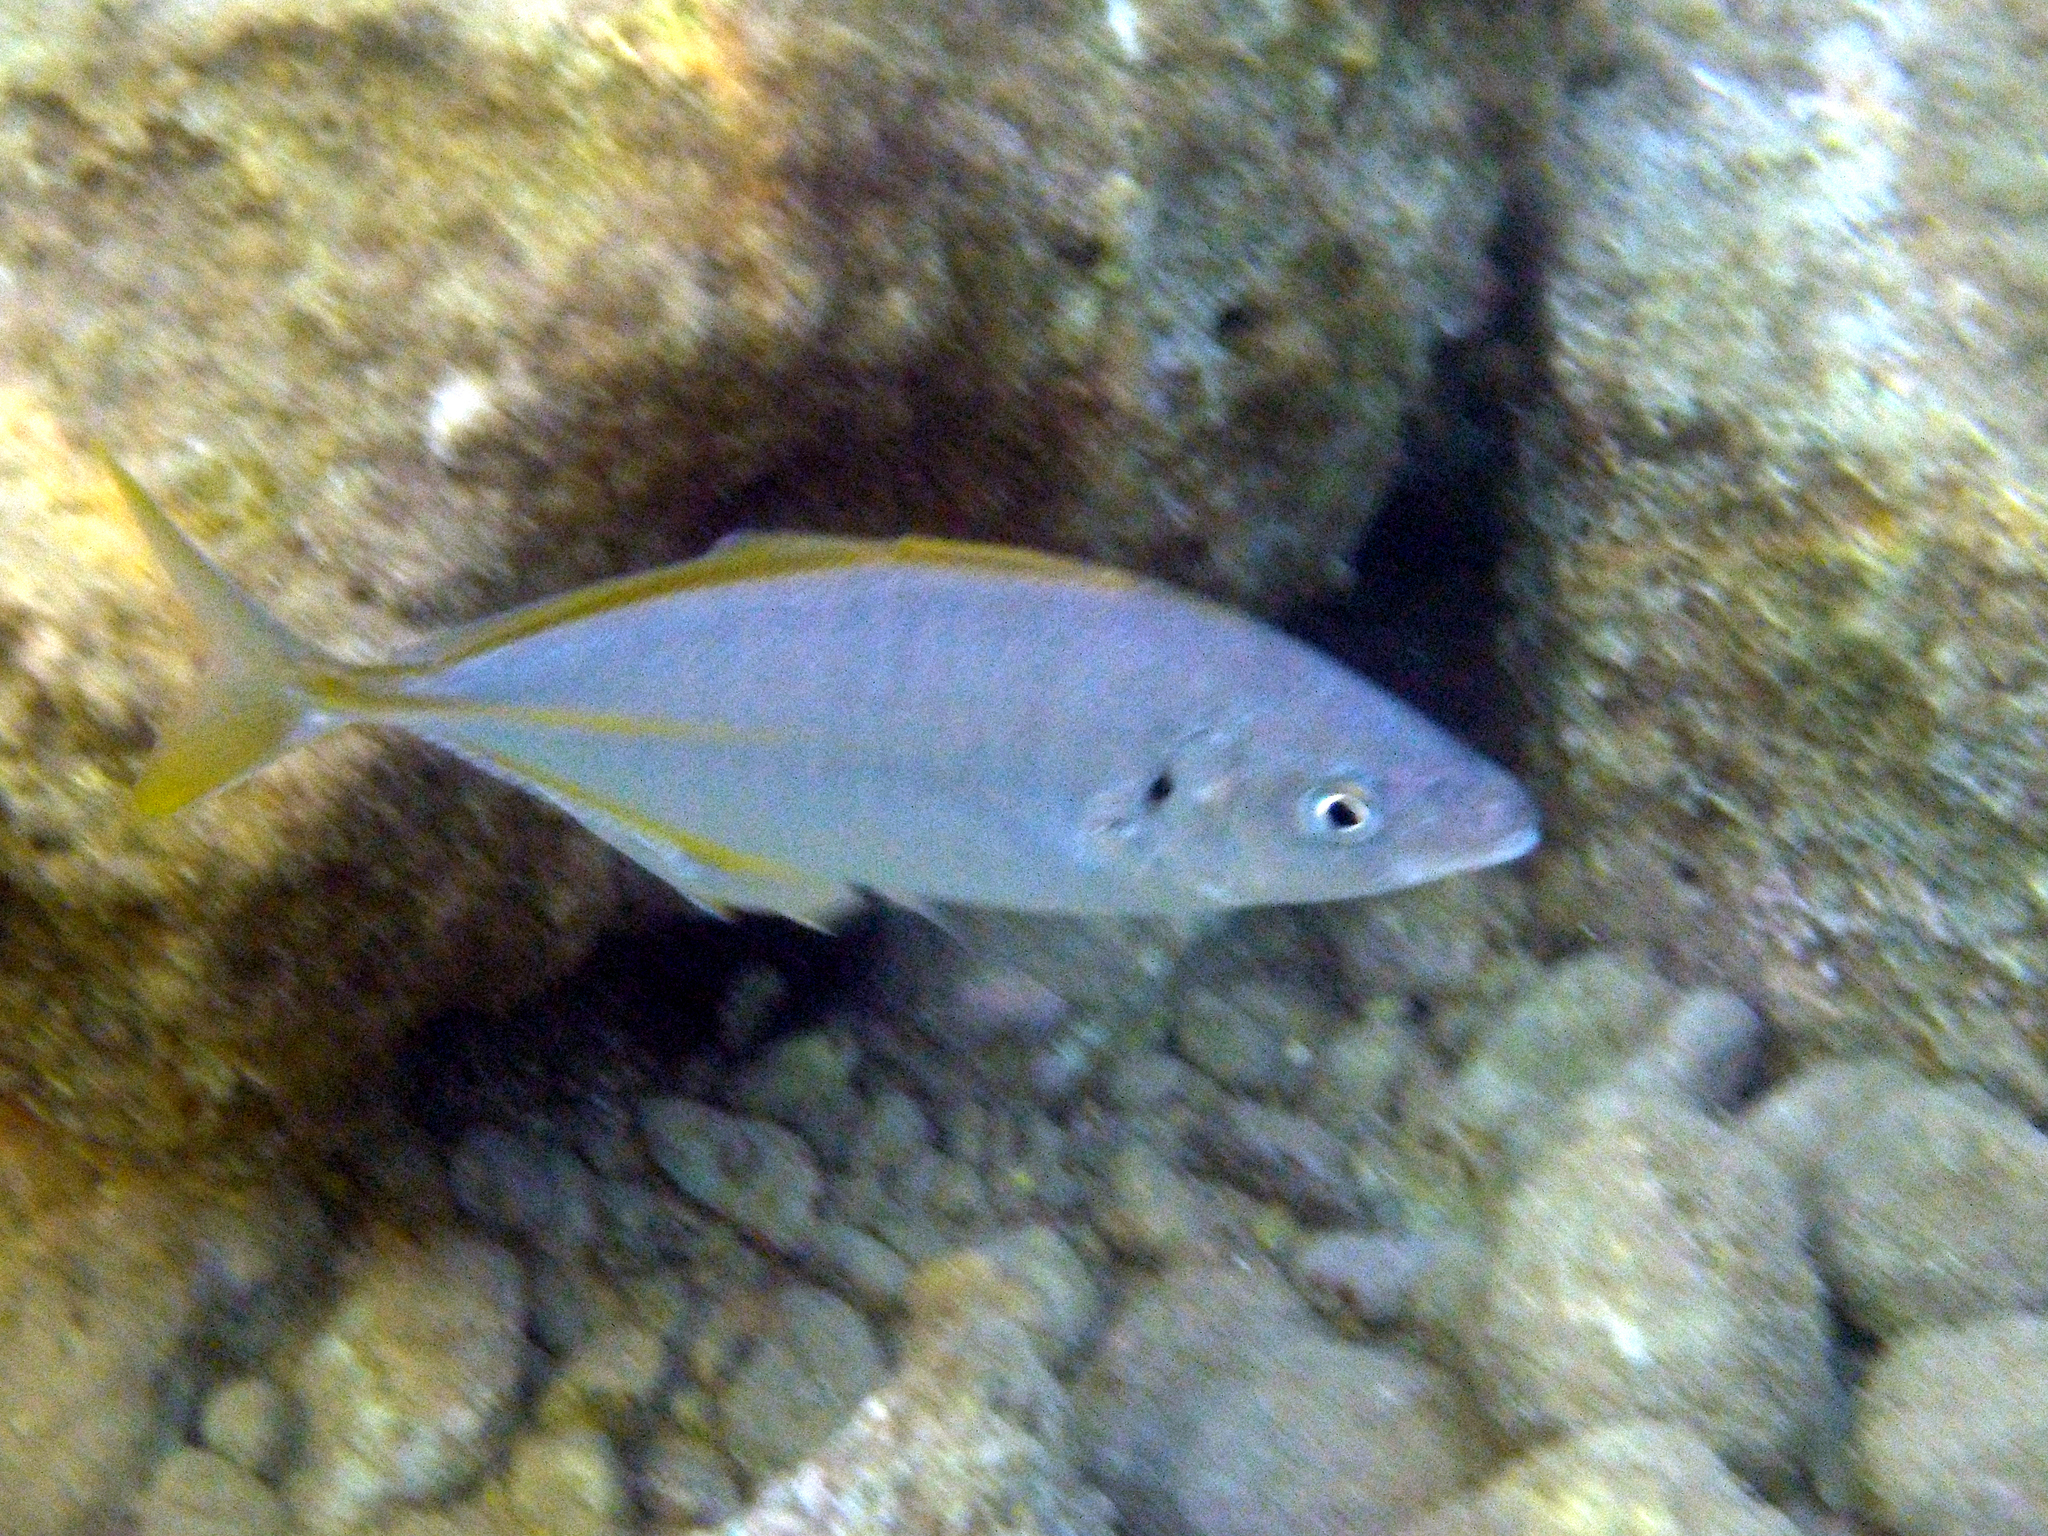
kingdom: Animalia
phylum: Chordata
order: Perciformes
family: Carangidae
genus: Pseudocaranx
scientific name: Pseudocaranx dentex
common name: White trevally
